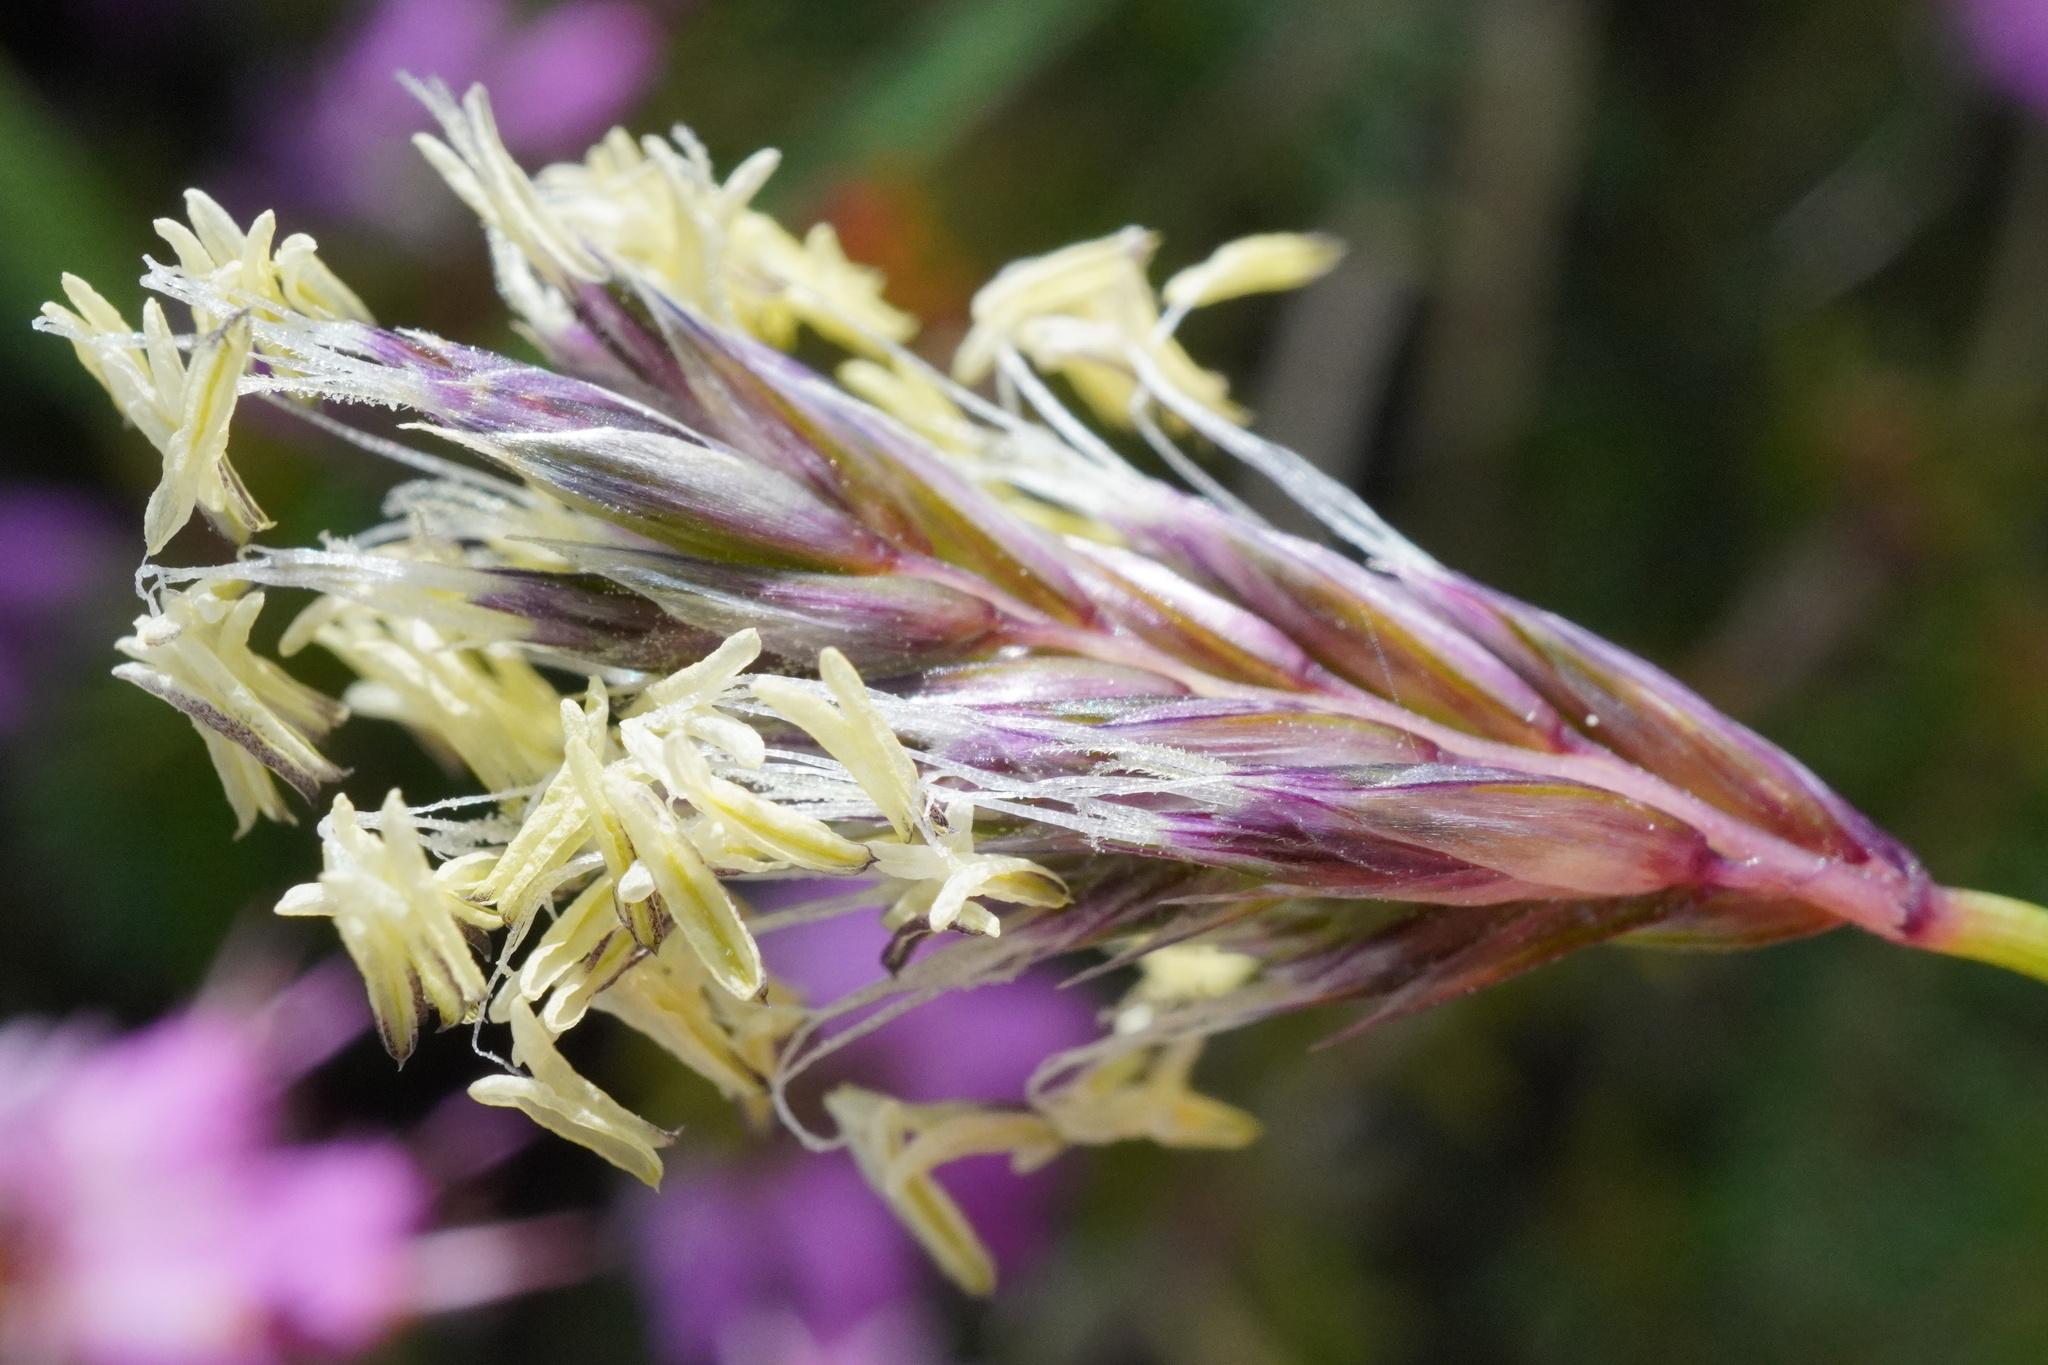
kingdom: Plantae
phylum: Tracheophyta
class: Liliopsida
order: Poales
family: Poaceae
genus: Sesleria
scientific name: Sesleria caerulea
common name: Blue moor-grass
